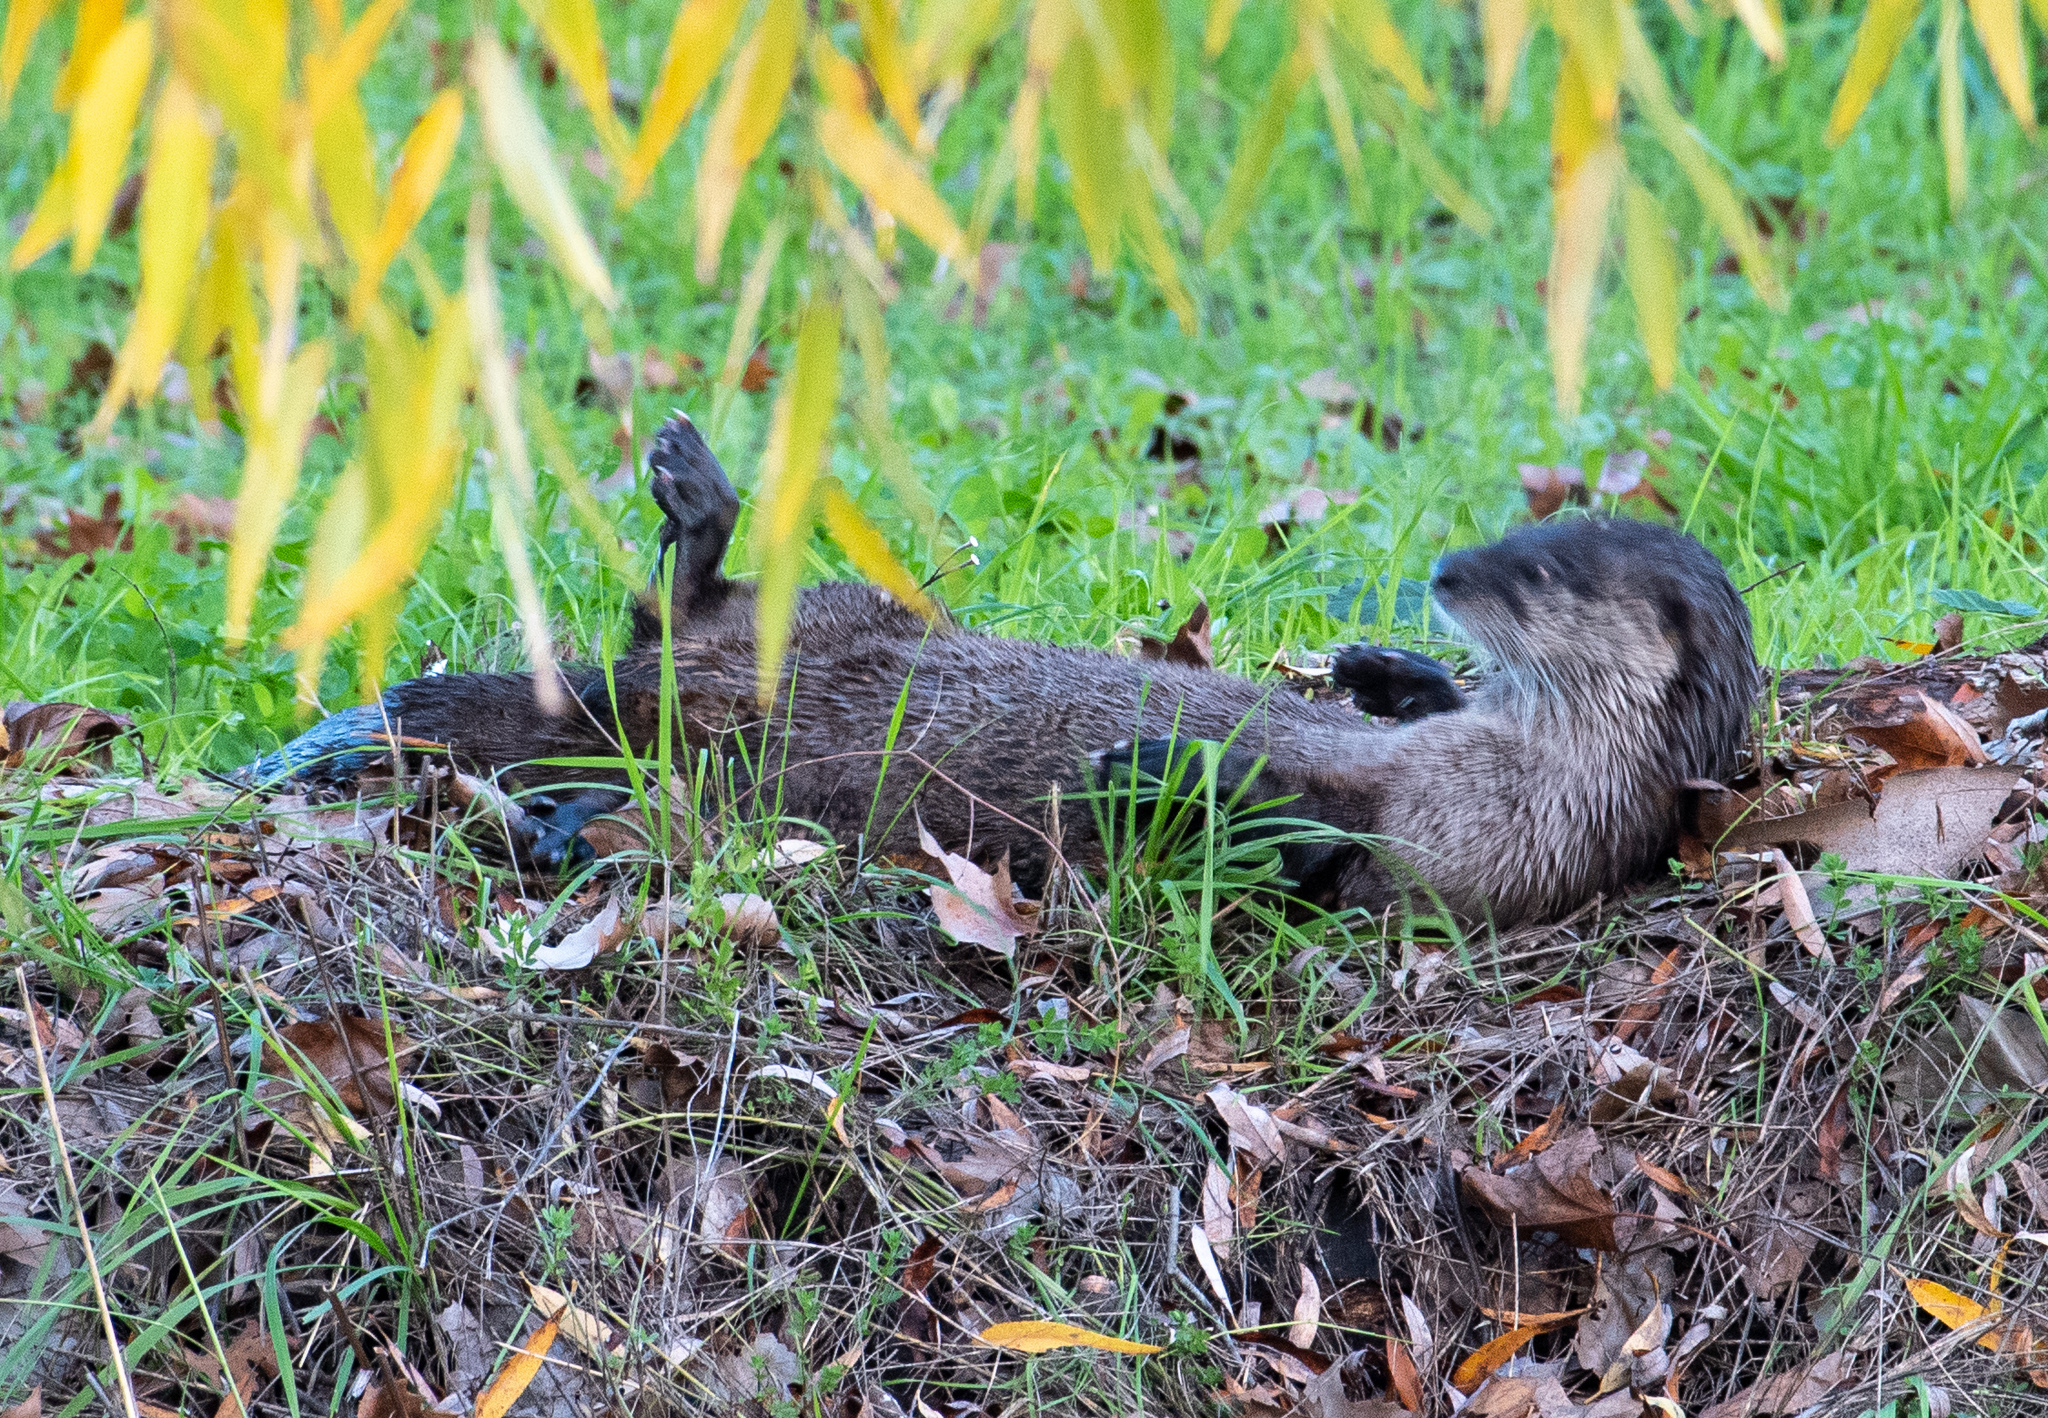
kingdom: Animalia
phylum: Chordata
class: Mammalia
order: Carnivora
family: Mustelidae
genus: Lontra
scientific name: Lontra canadensis
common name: North american river otter
